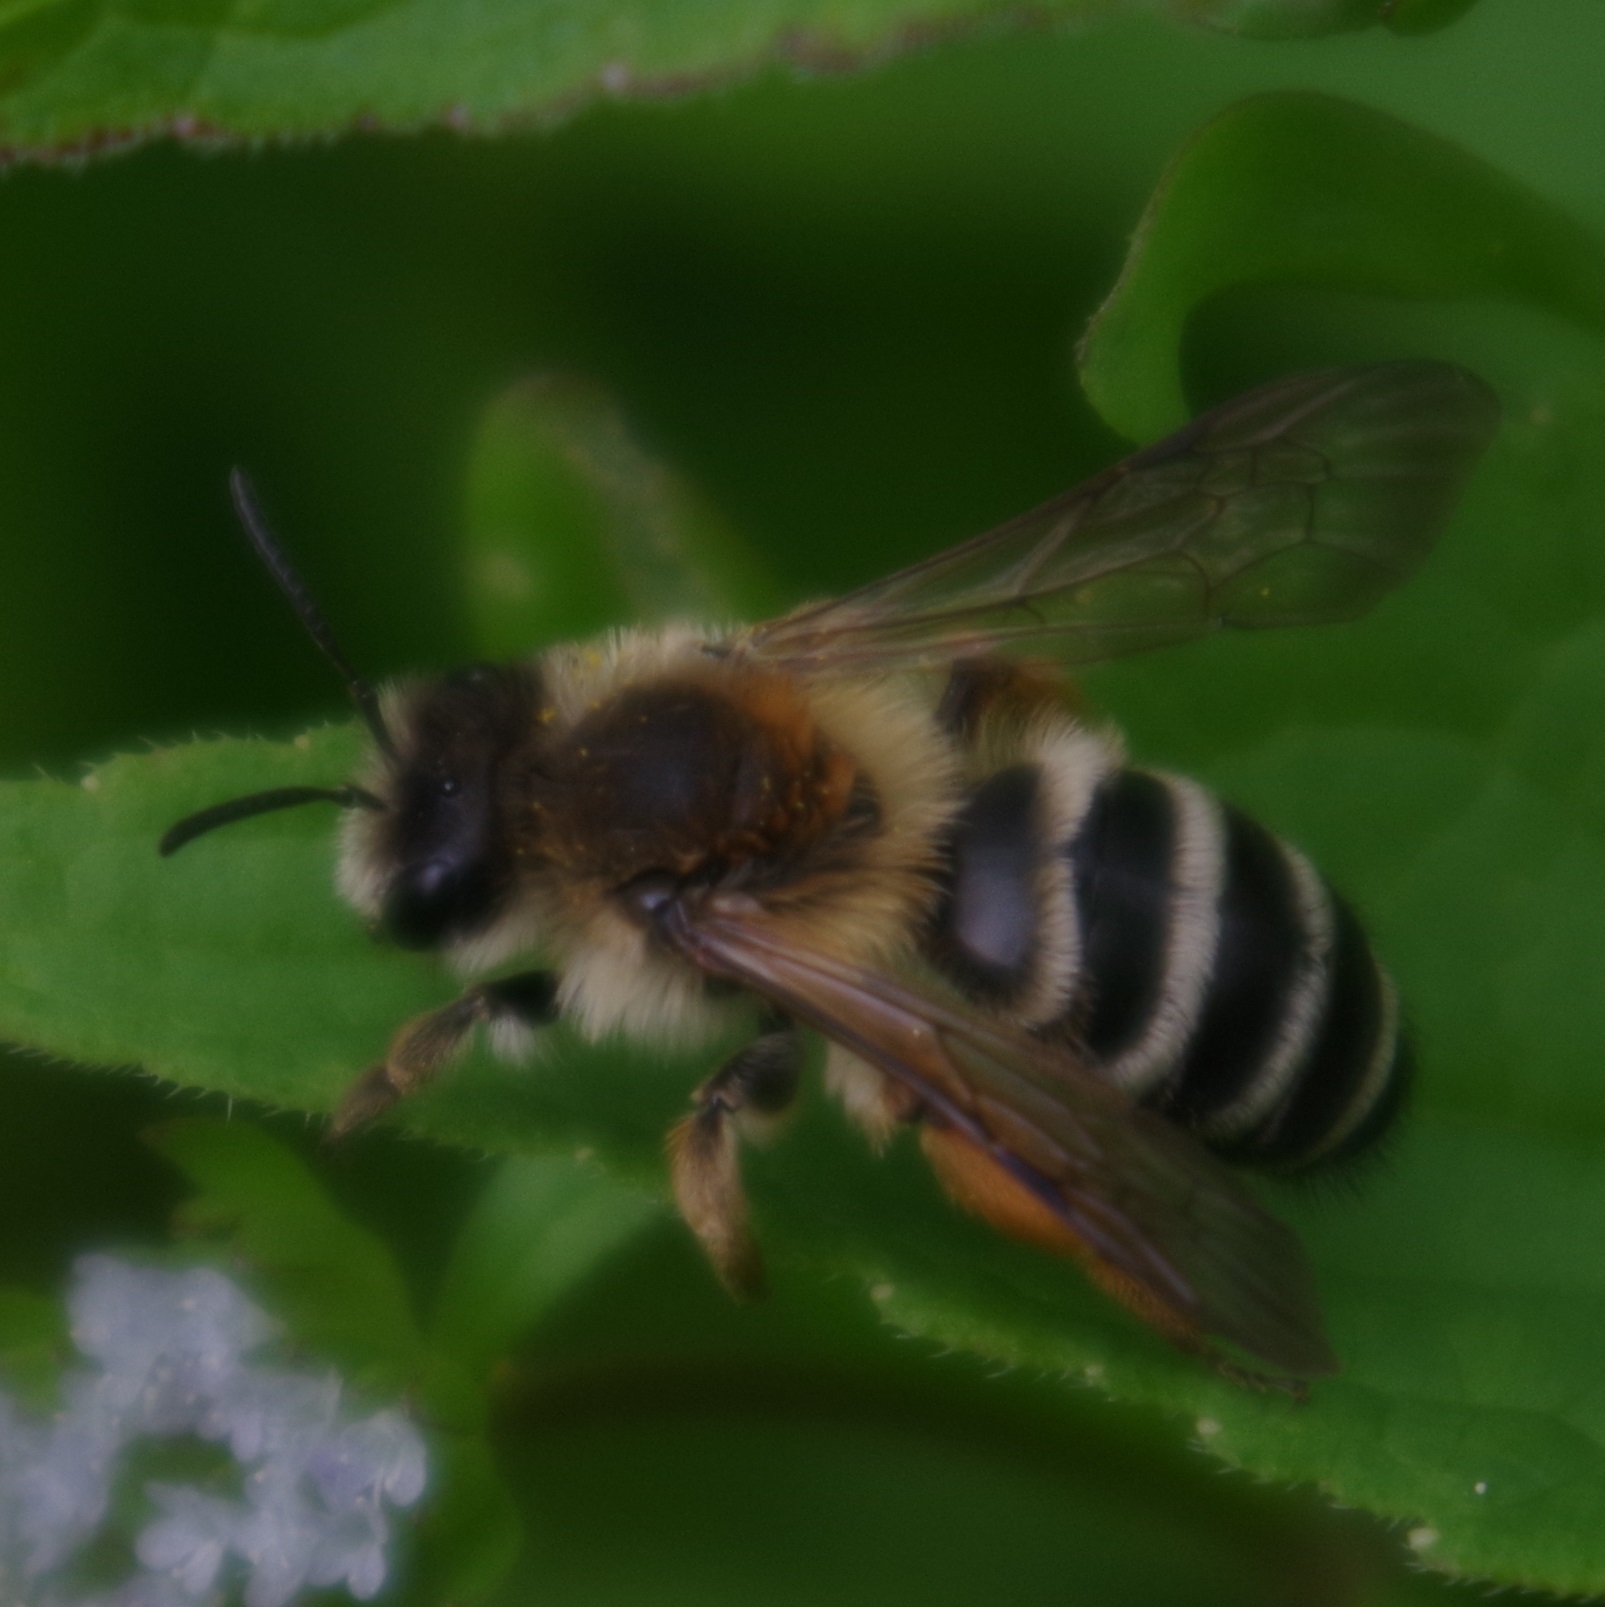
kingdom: Animalia
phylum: Arthropoda
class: Insecta
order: Hymenoptera
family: Andrenidae
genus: Andrena
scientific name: Andrena gravida
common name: White-bellied mining bee
